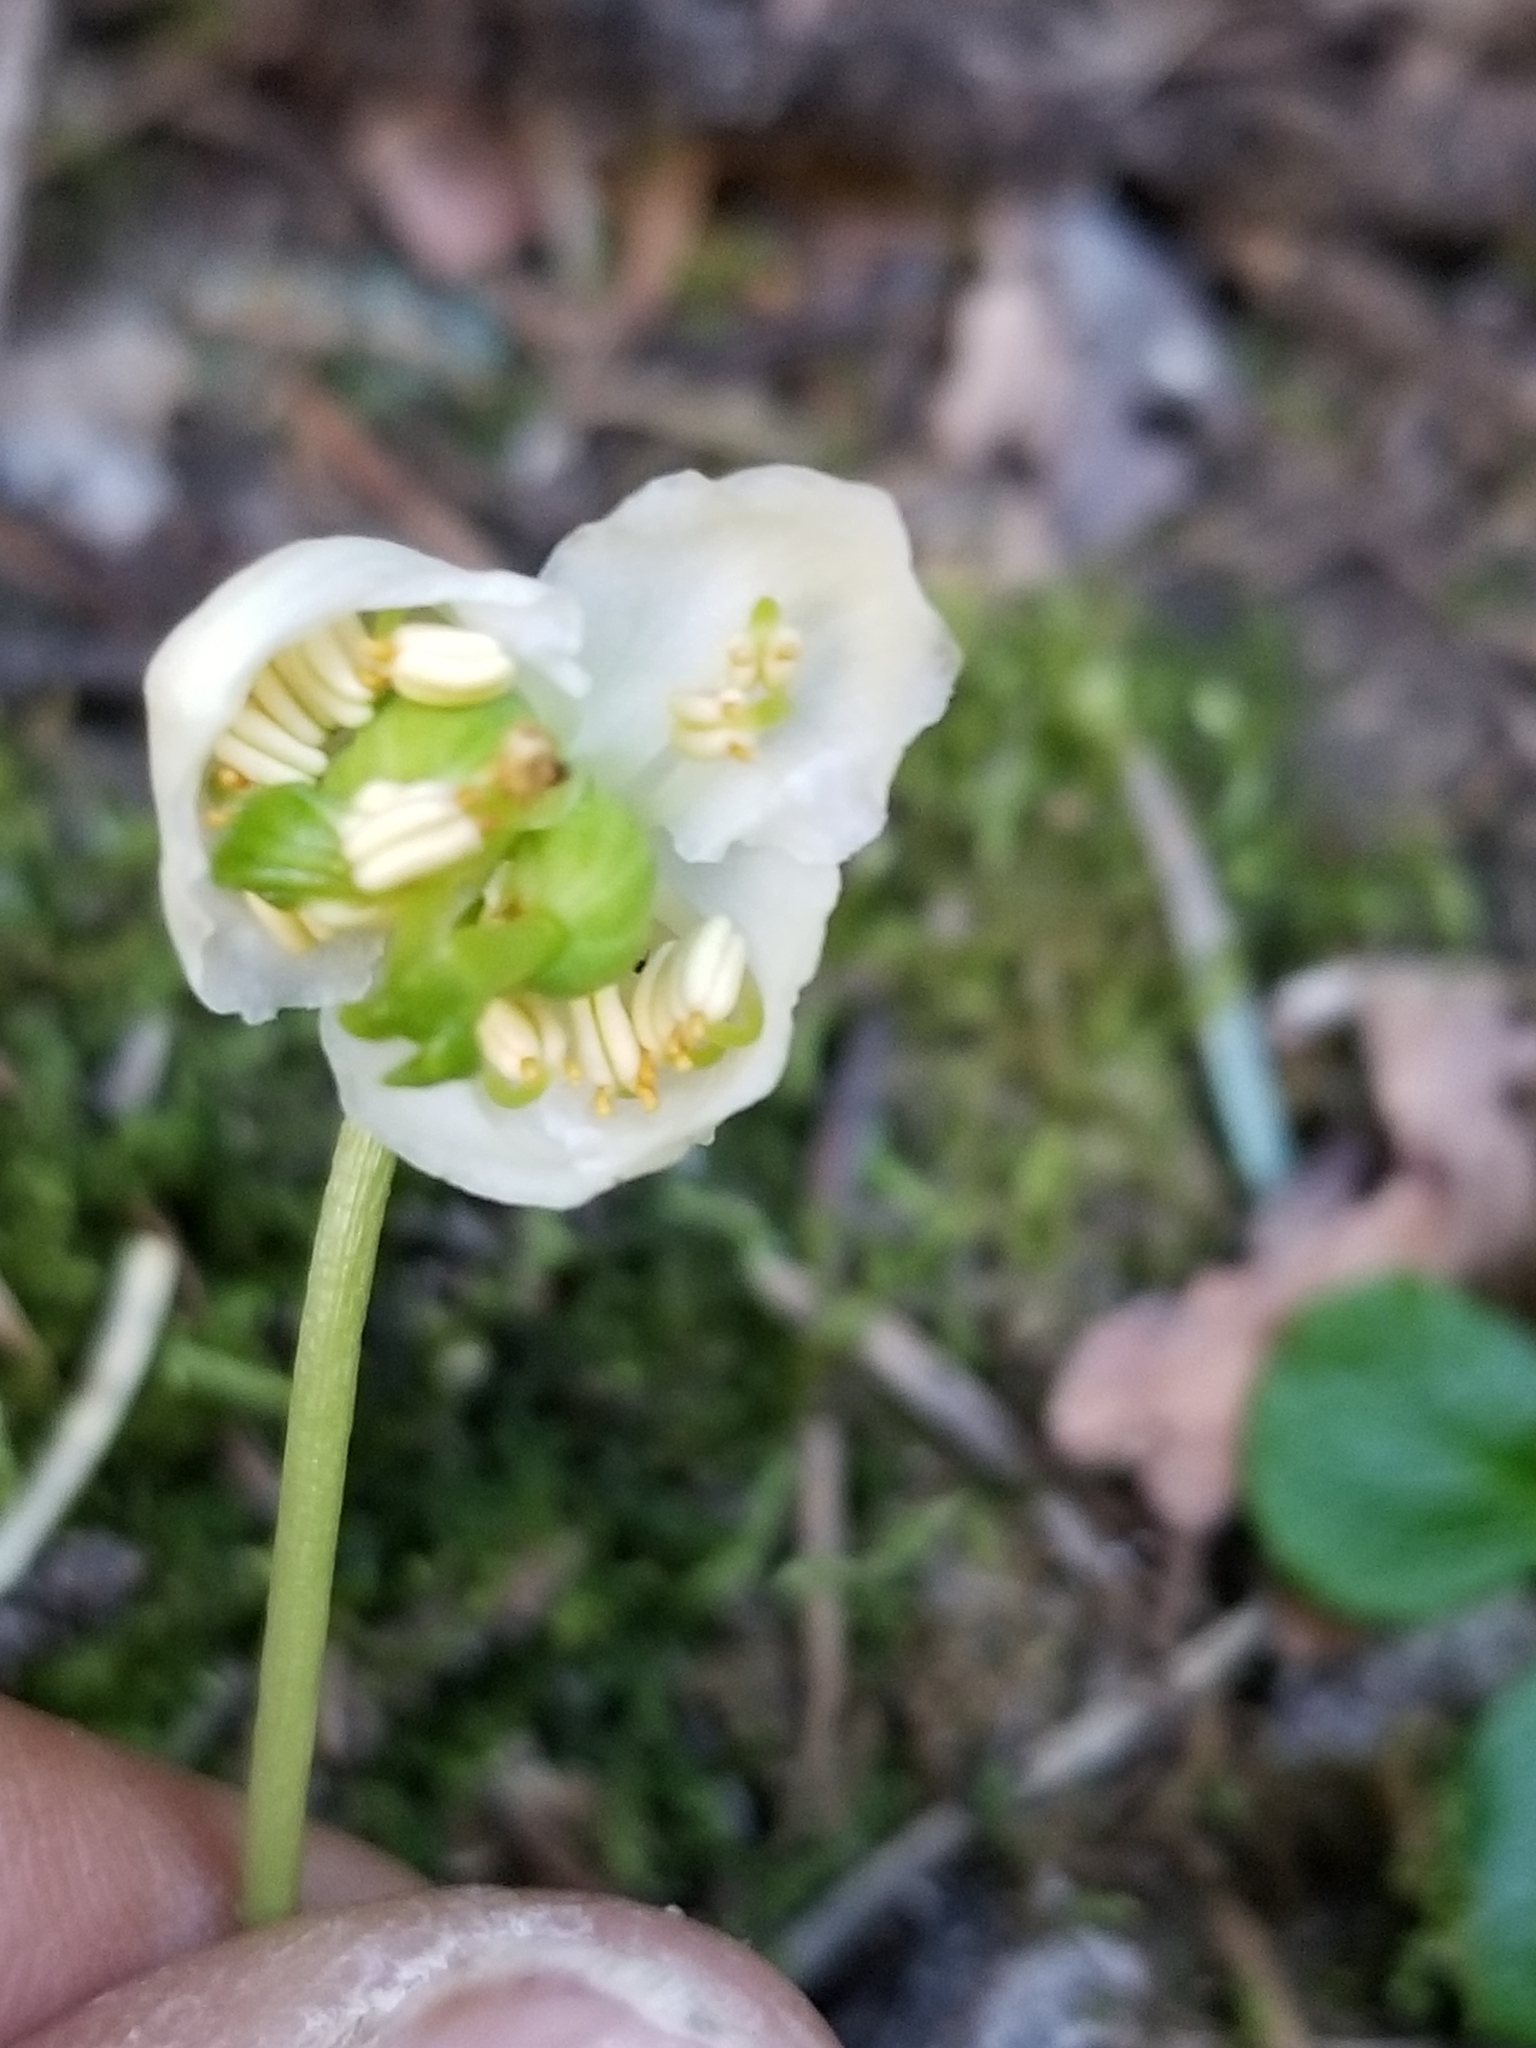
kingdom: Plantae
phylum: Tracheophyta
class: Magnoliopsida
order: Ericales
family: Ericaceae
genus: Moneses
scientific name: Moneses uniflora
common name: One-flowered wintergreen
